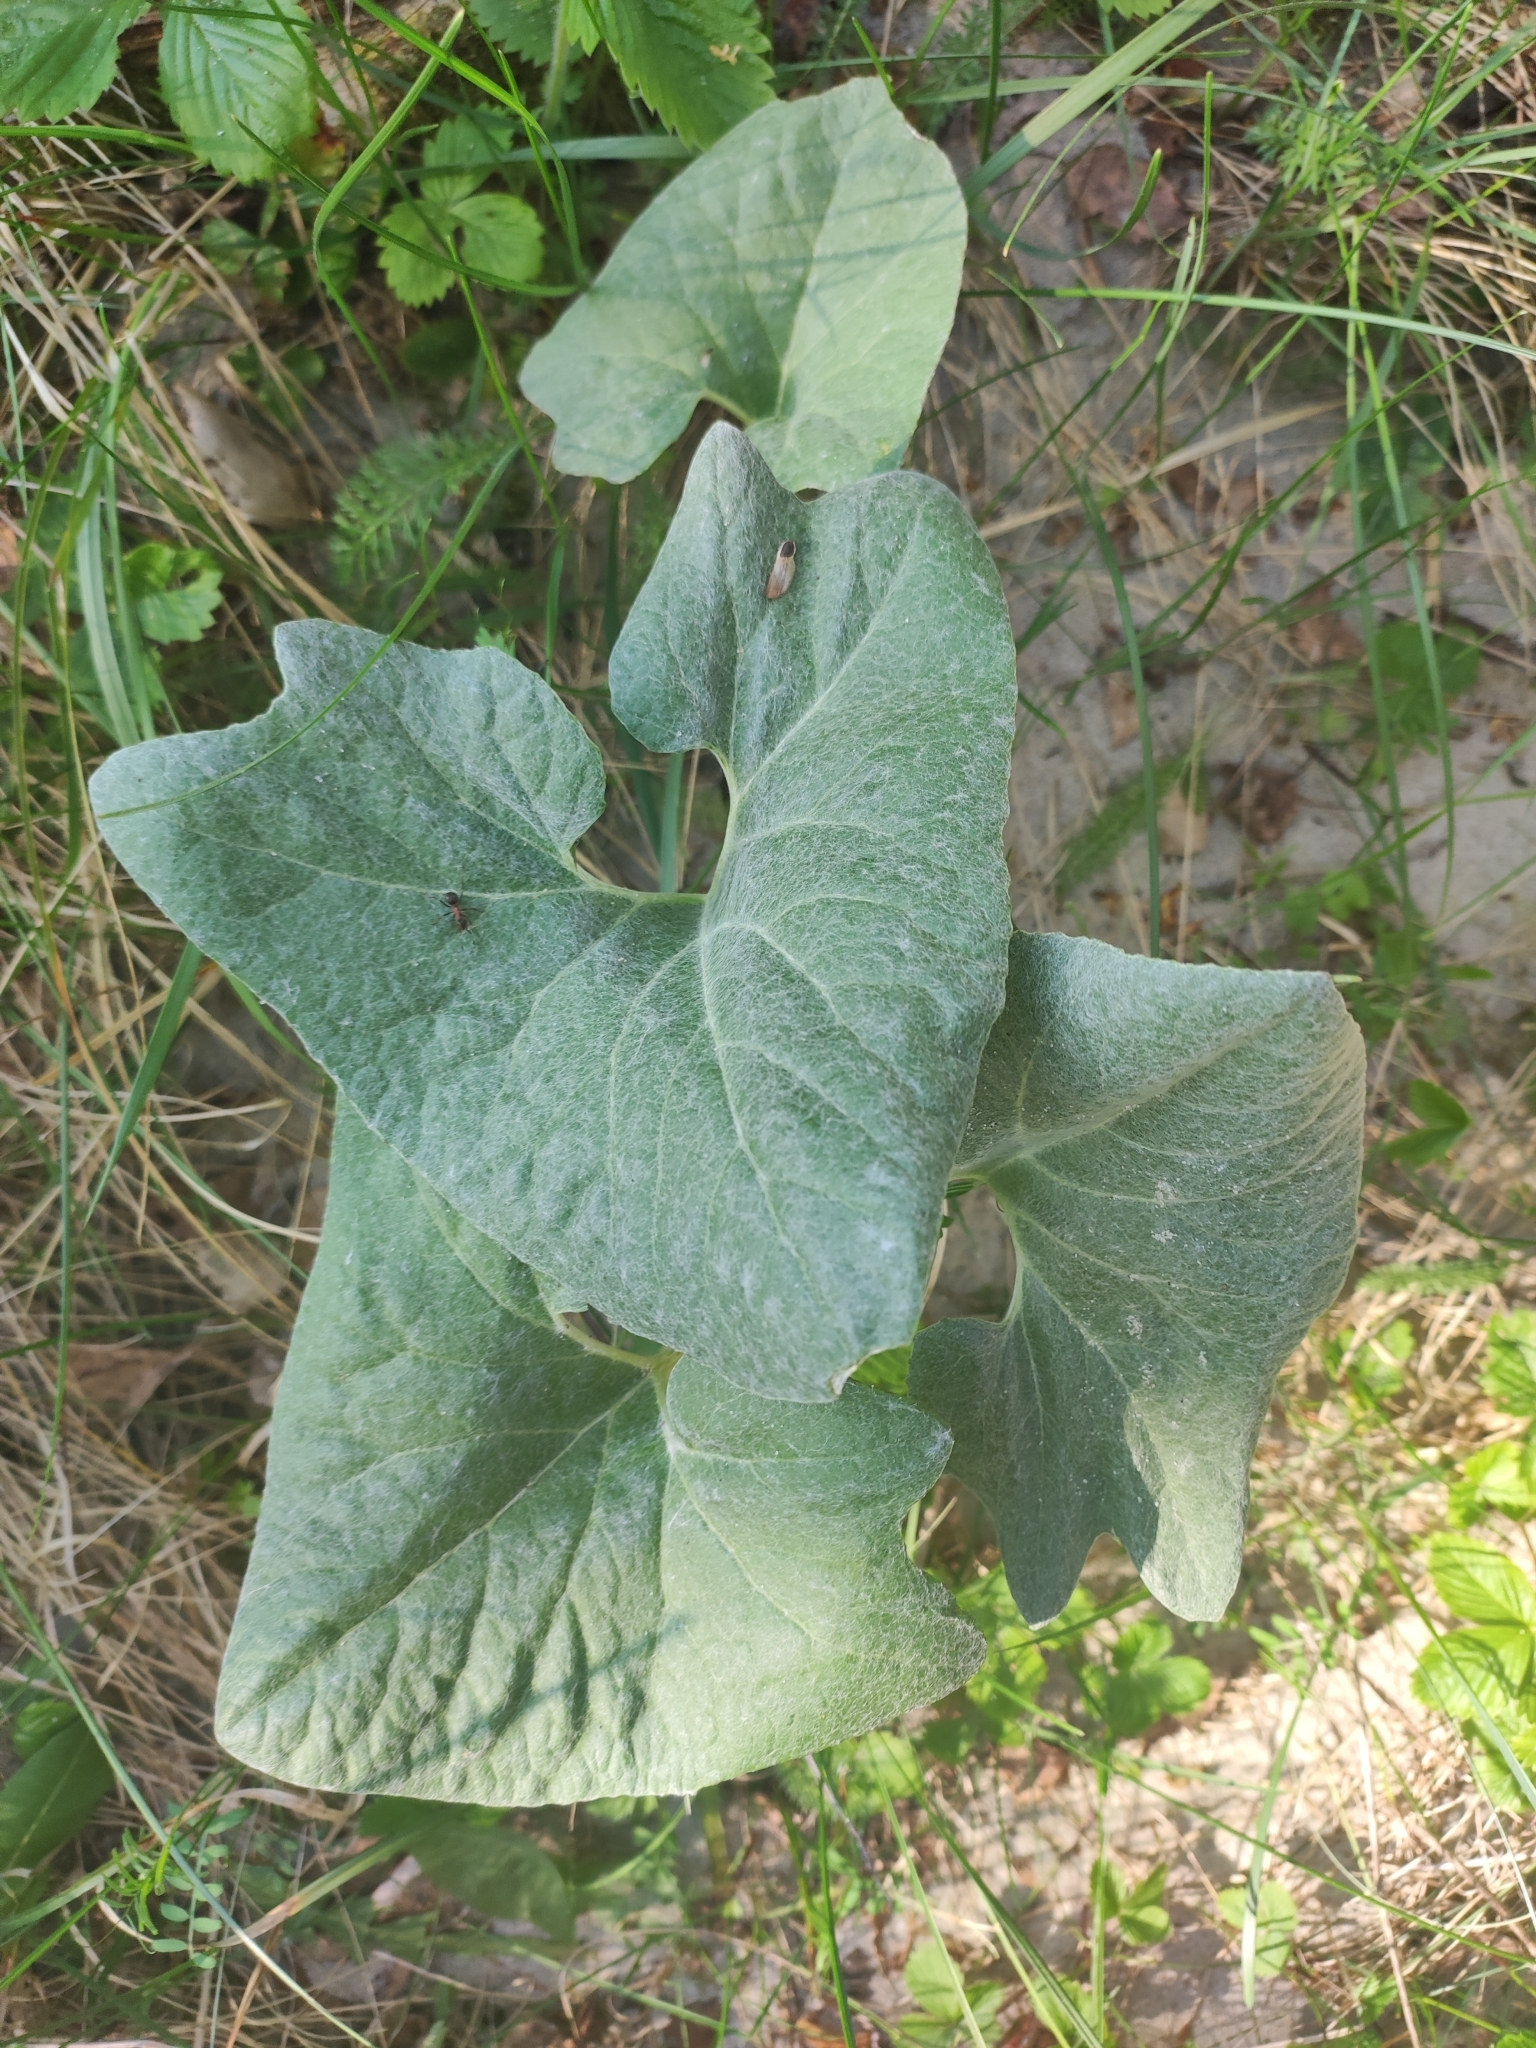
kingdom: Plantae
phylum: Tracheophyta
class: Magnoliopsida
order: Asterales
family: Asteraceae
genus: Petasites
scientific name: Petasites spurius
